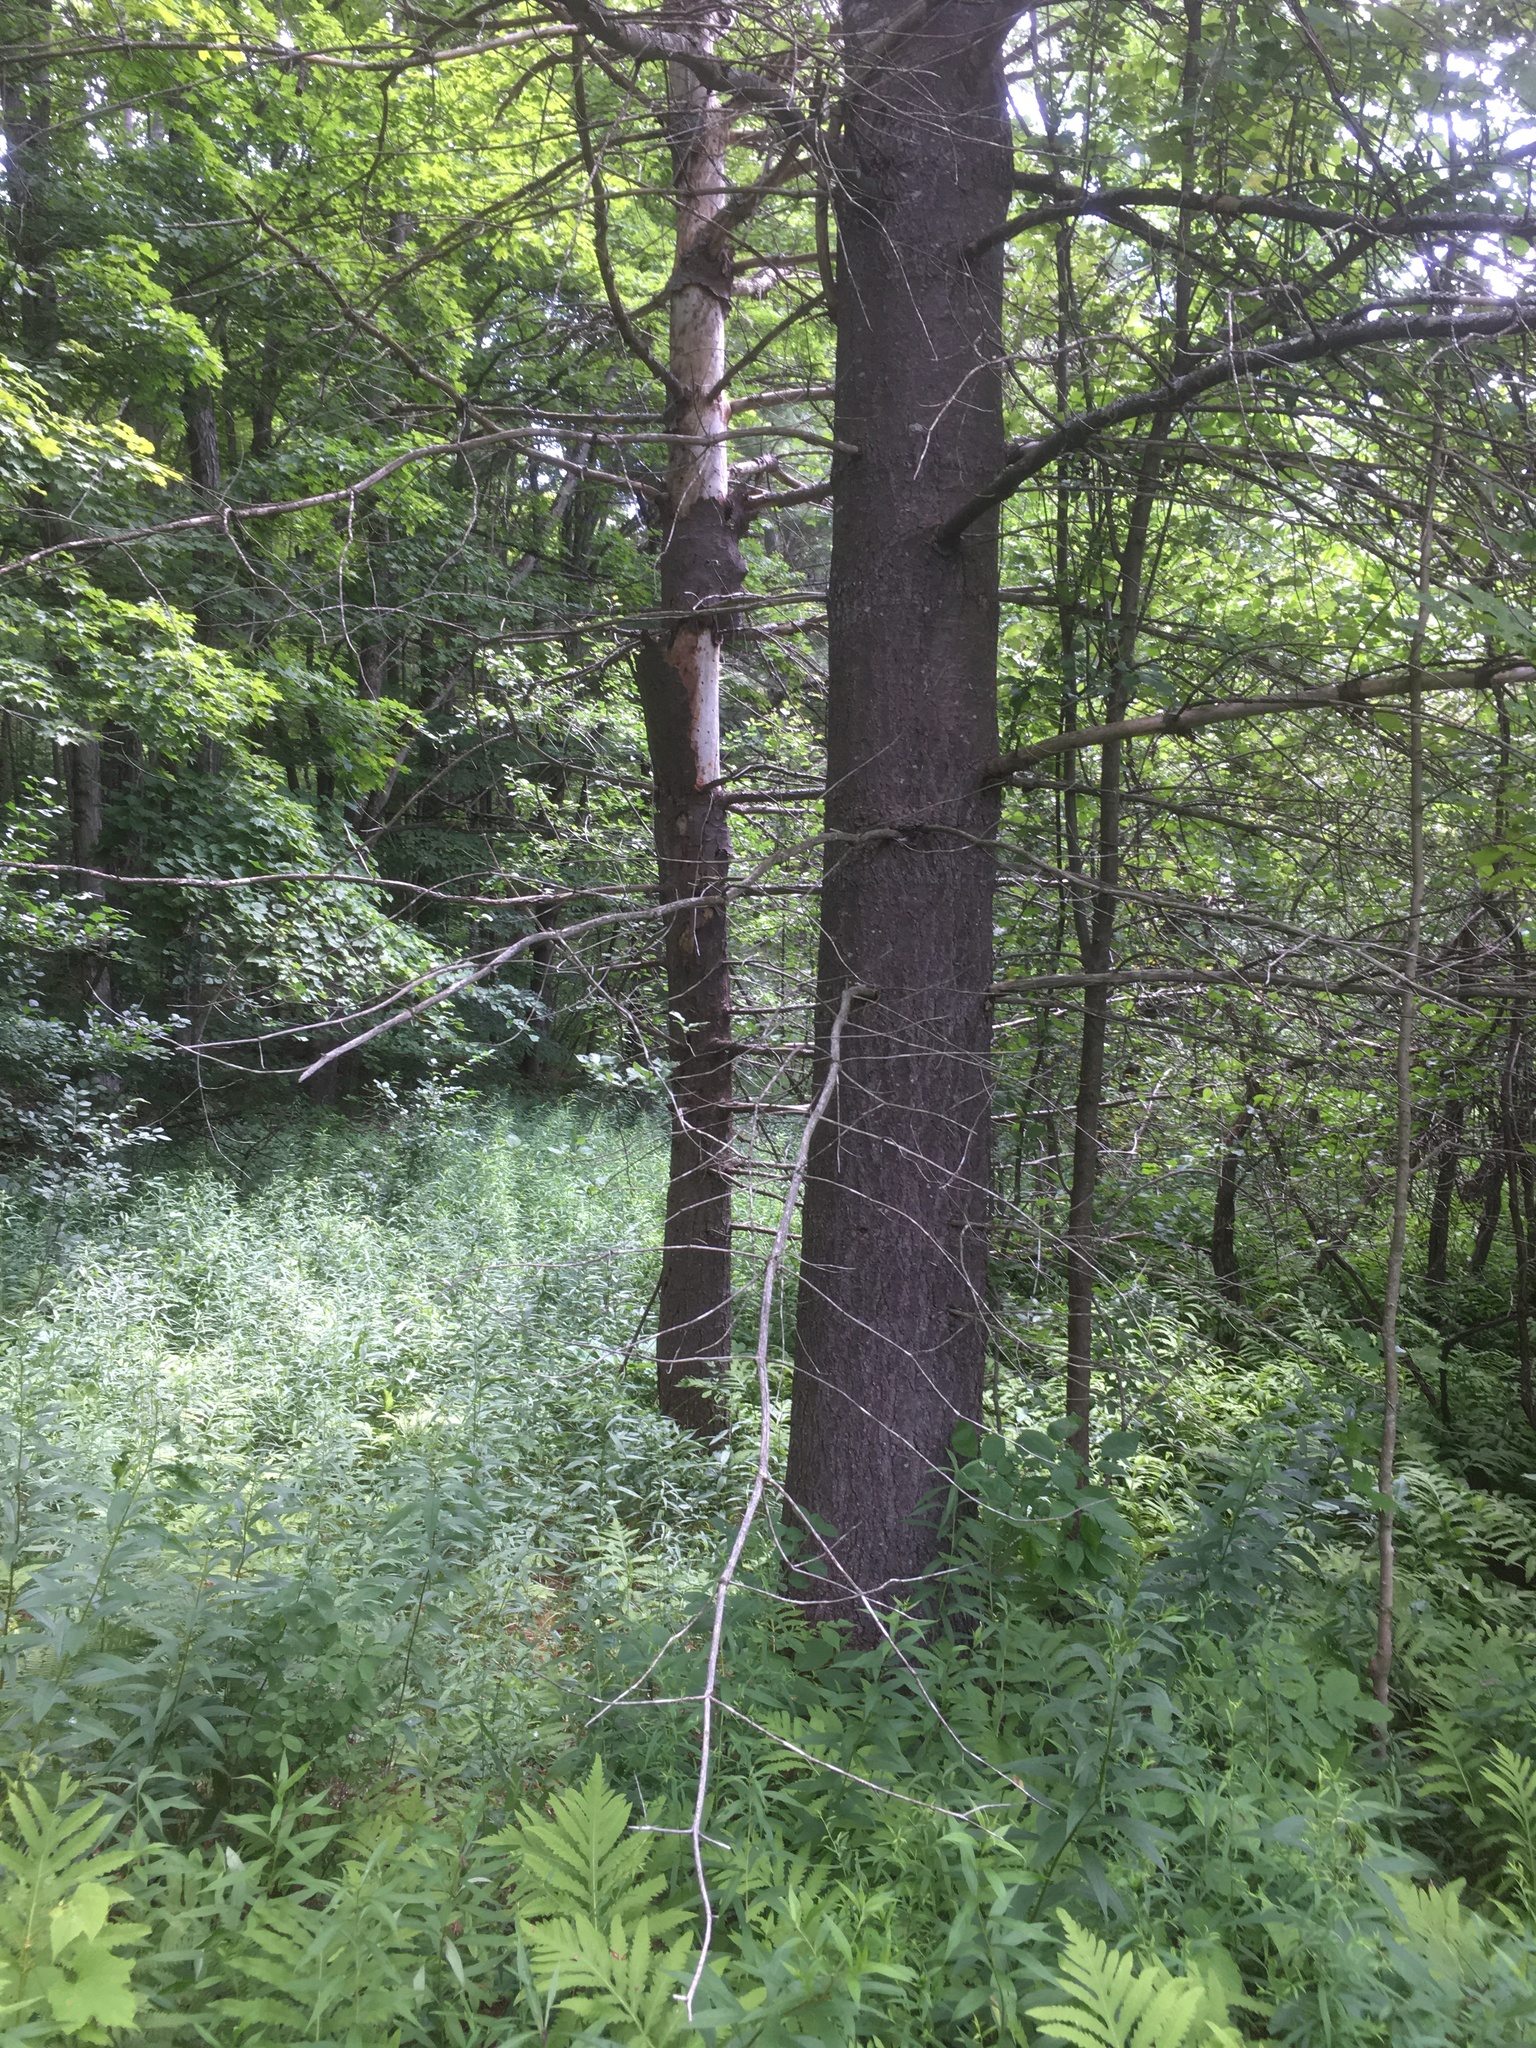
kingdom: Plantae
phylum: Tracheophyta
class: Pinopsida
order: Pinales
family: Pinaceae
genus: Pinus
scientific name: Pinus strobus
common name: Weymouth pine
